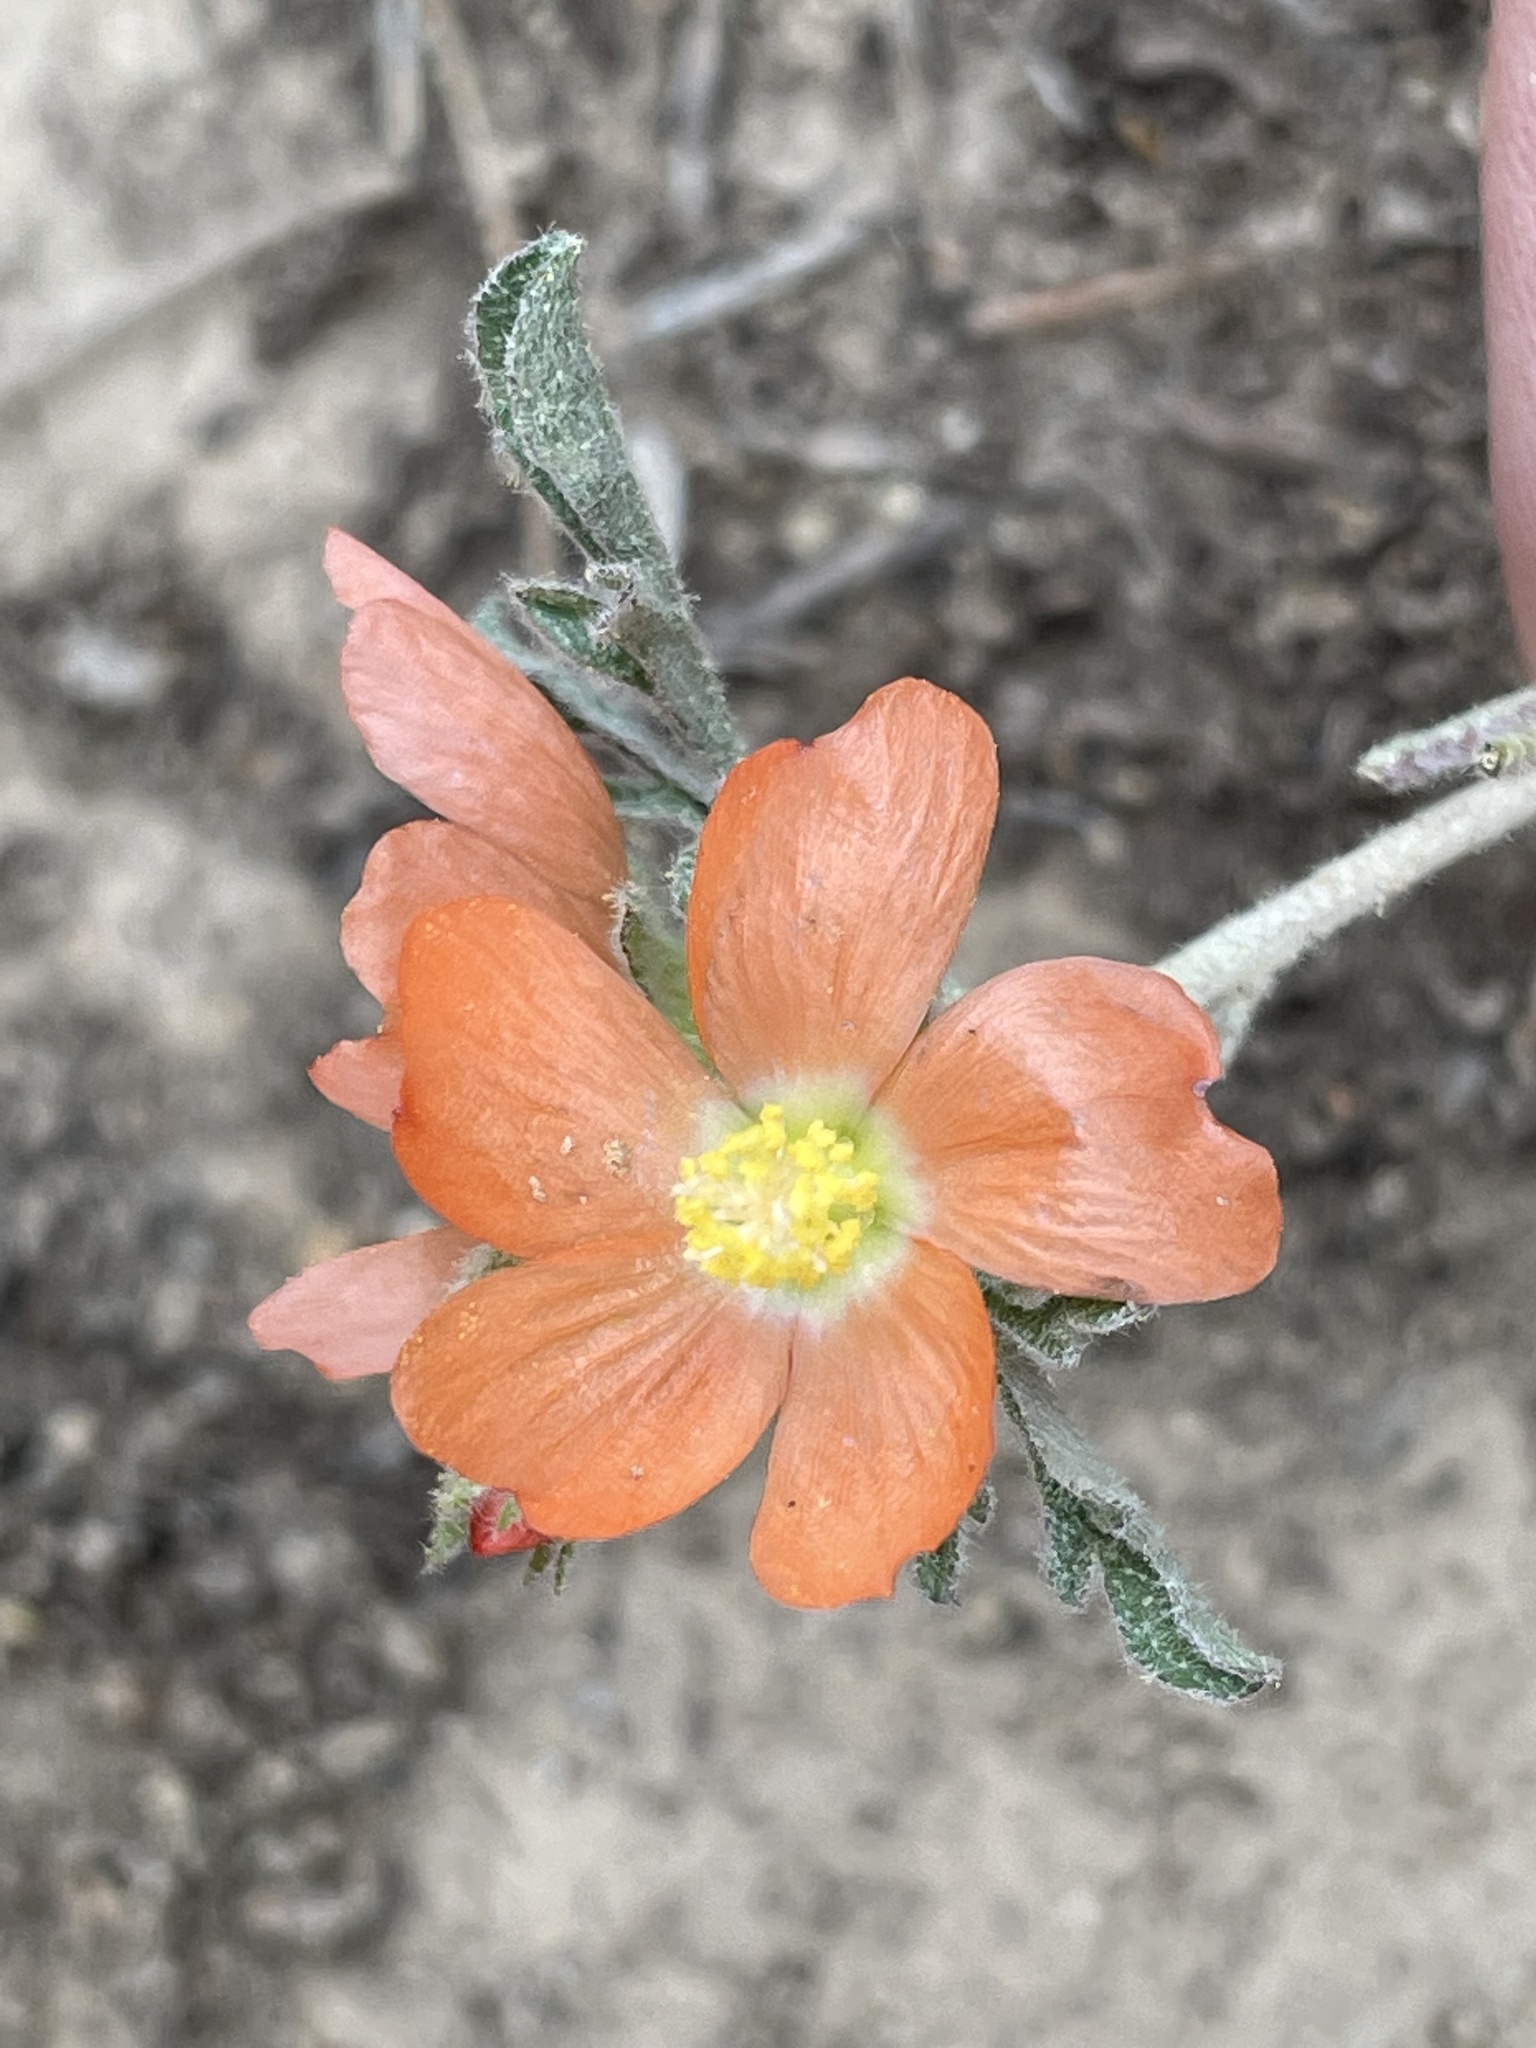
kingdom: Plantae
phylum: Tracheophyta
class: Magnoliopsida
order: Malvales
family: Malvaceae
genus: Sphaeralcea
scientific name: Sphaeralcea coccinea
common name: Moss-rose
